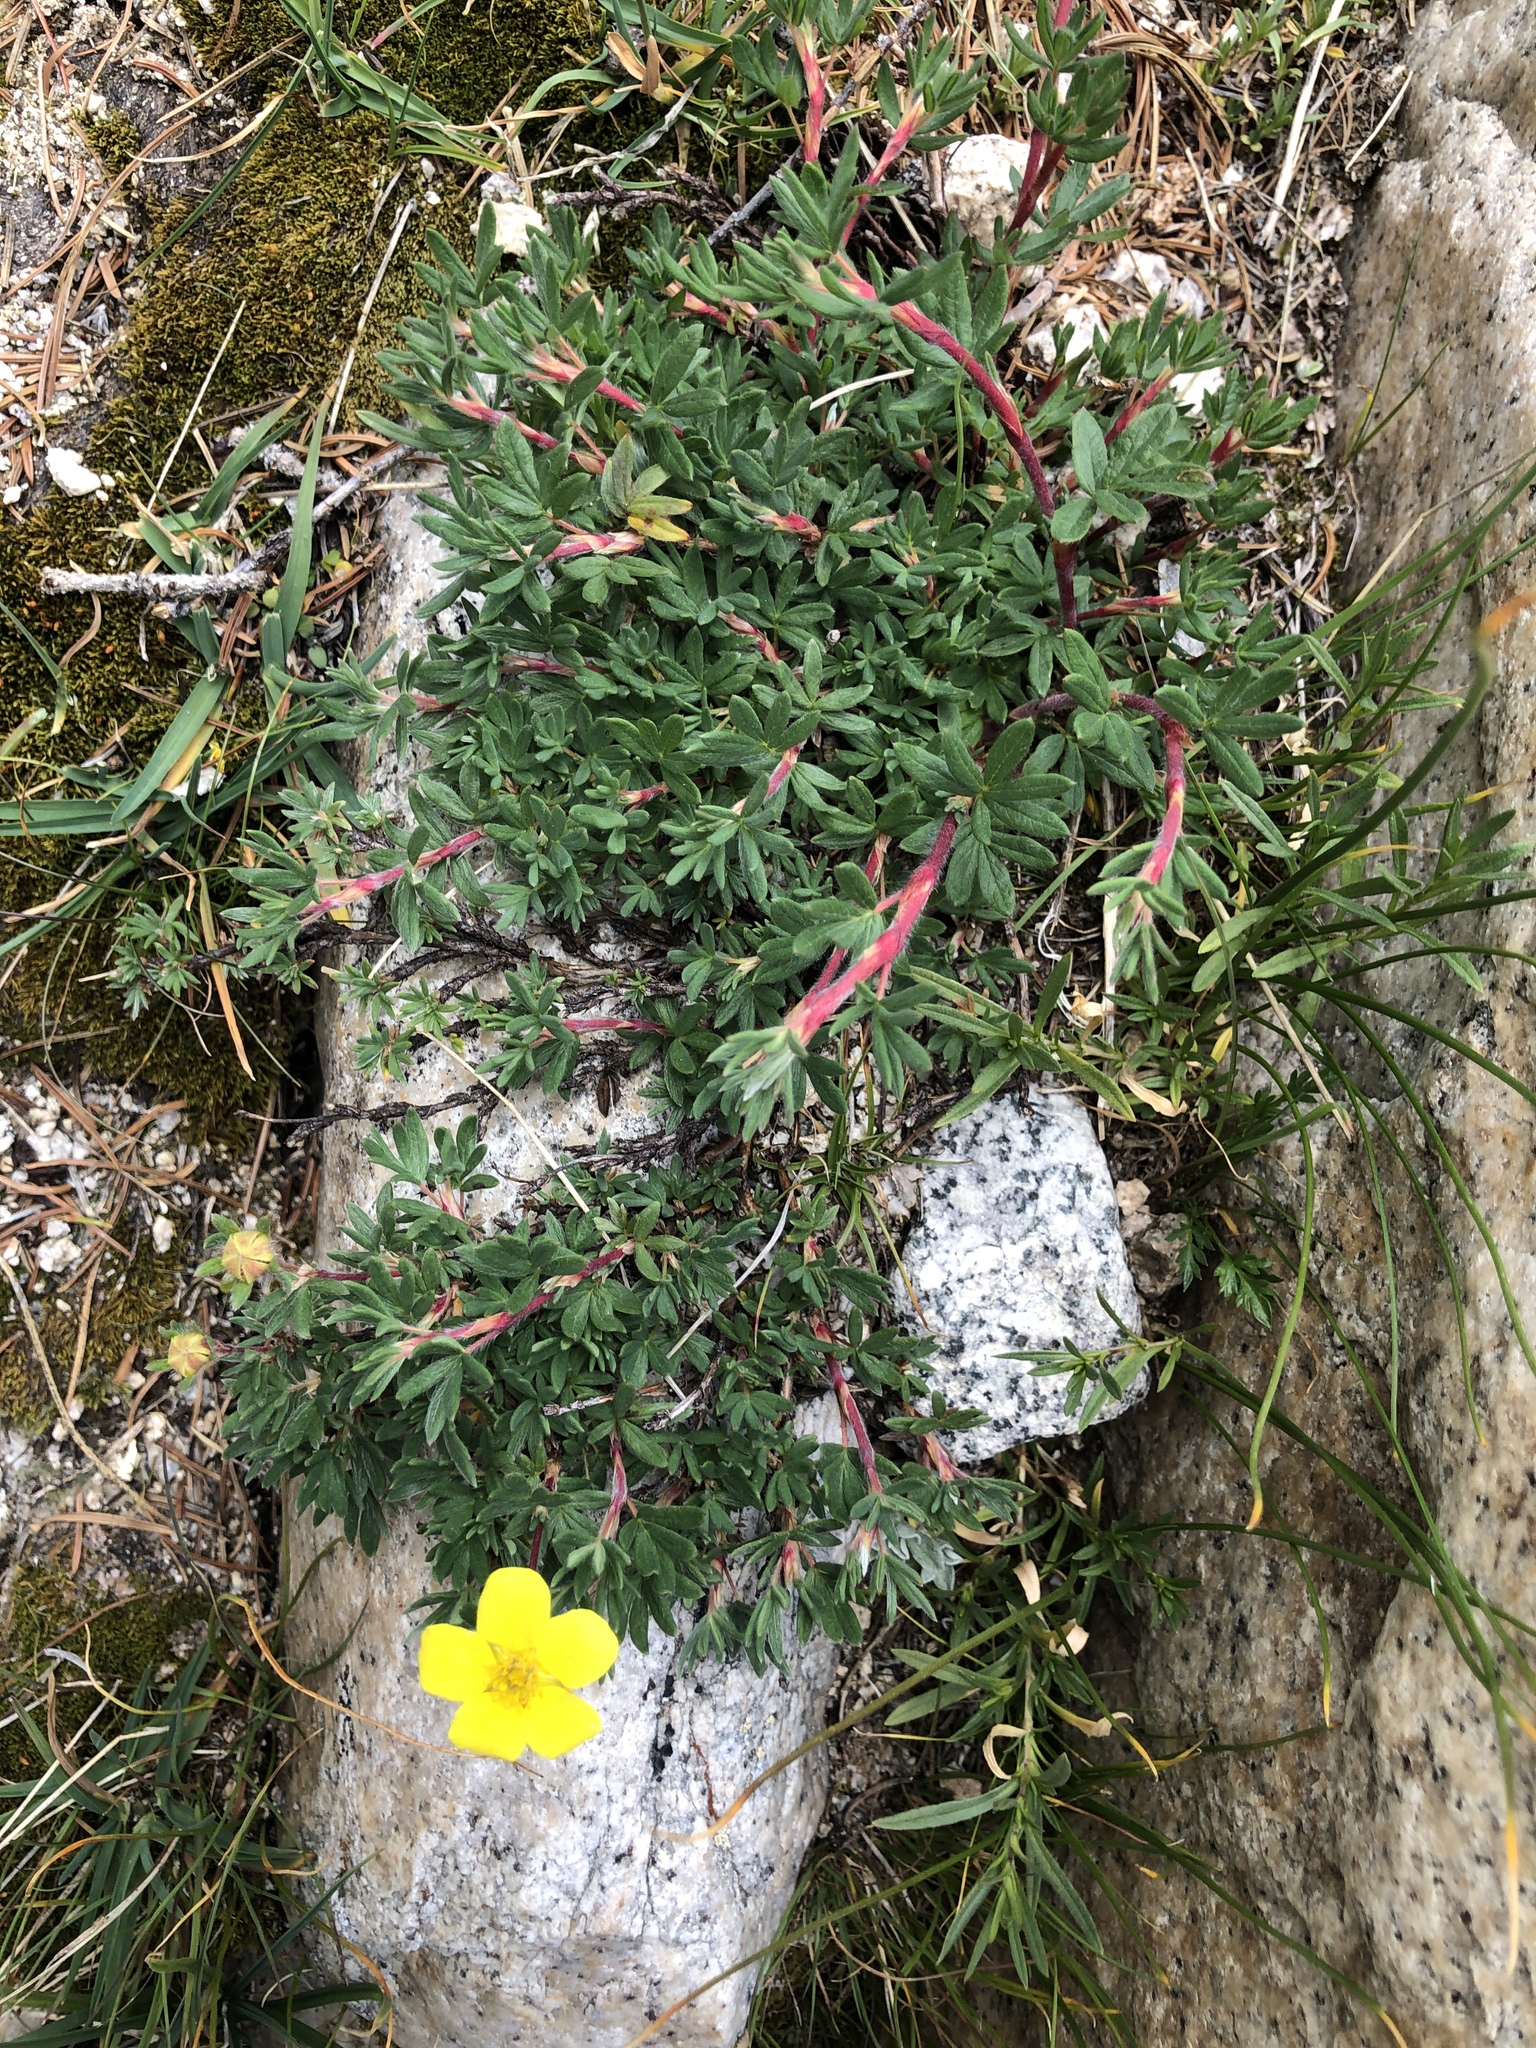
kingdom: Plantae
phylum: Tracheophyta
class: Magnoliopsida
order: Rosales
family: Rosaceae
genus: Dasiphora
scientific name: Dasiphora fruticosa
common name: Shrubby cinquefoil
